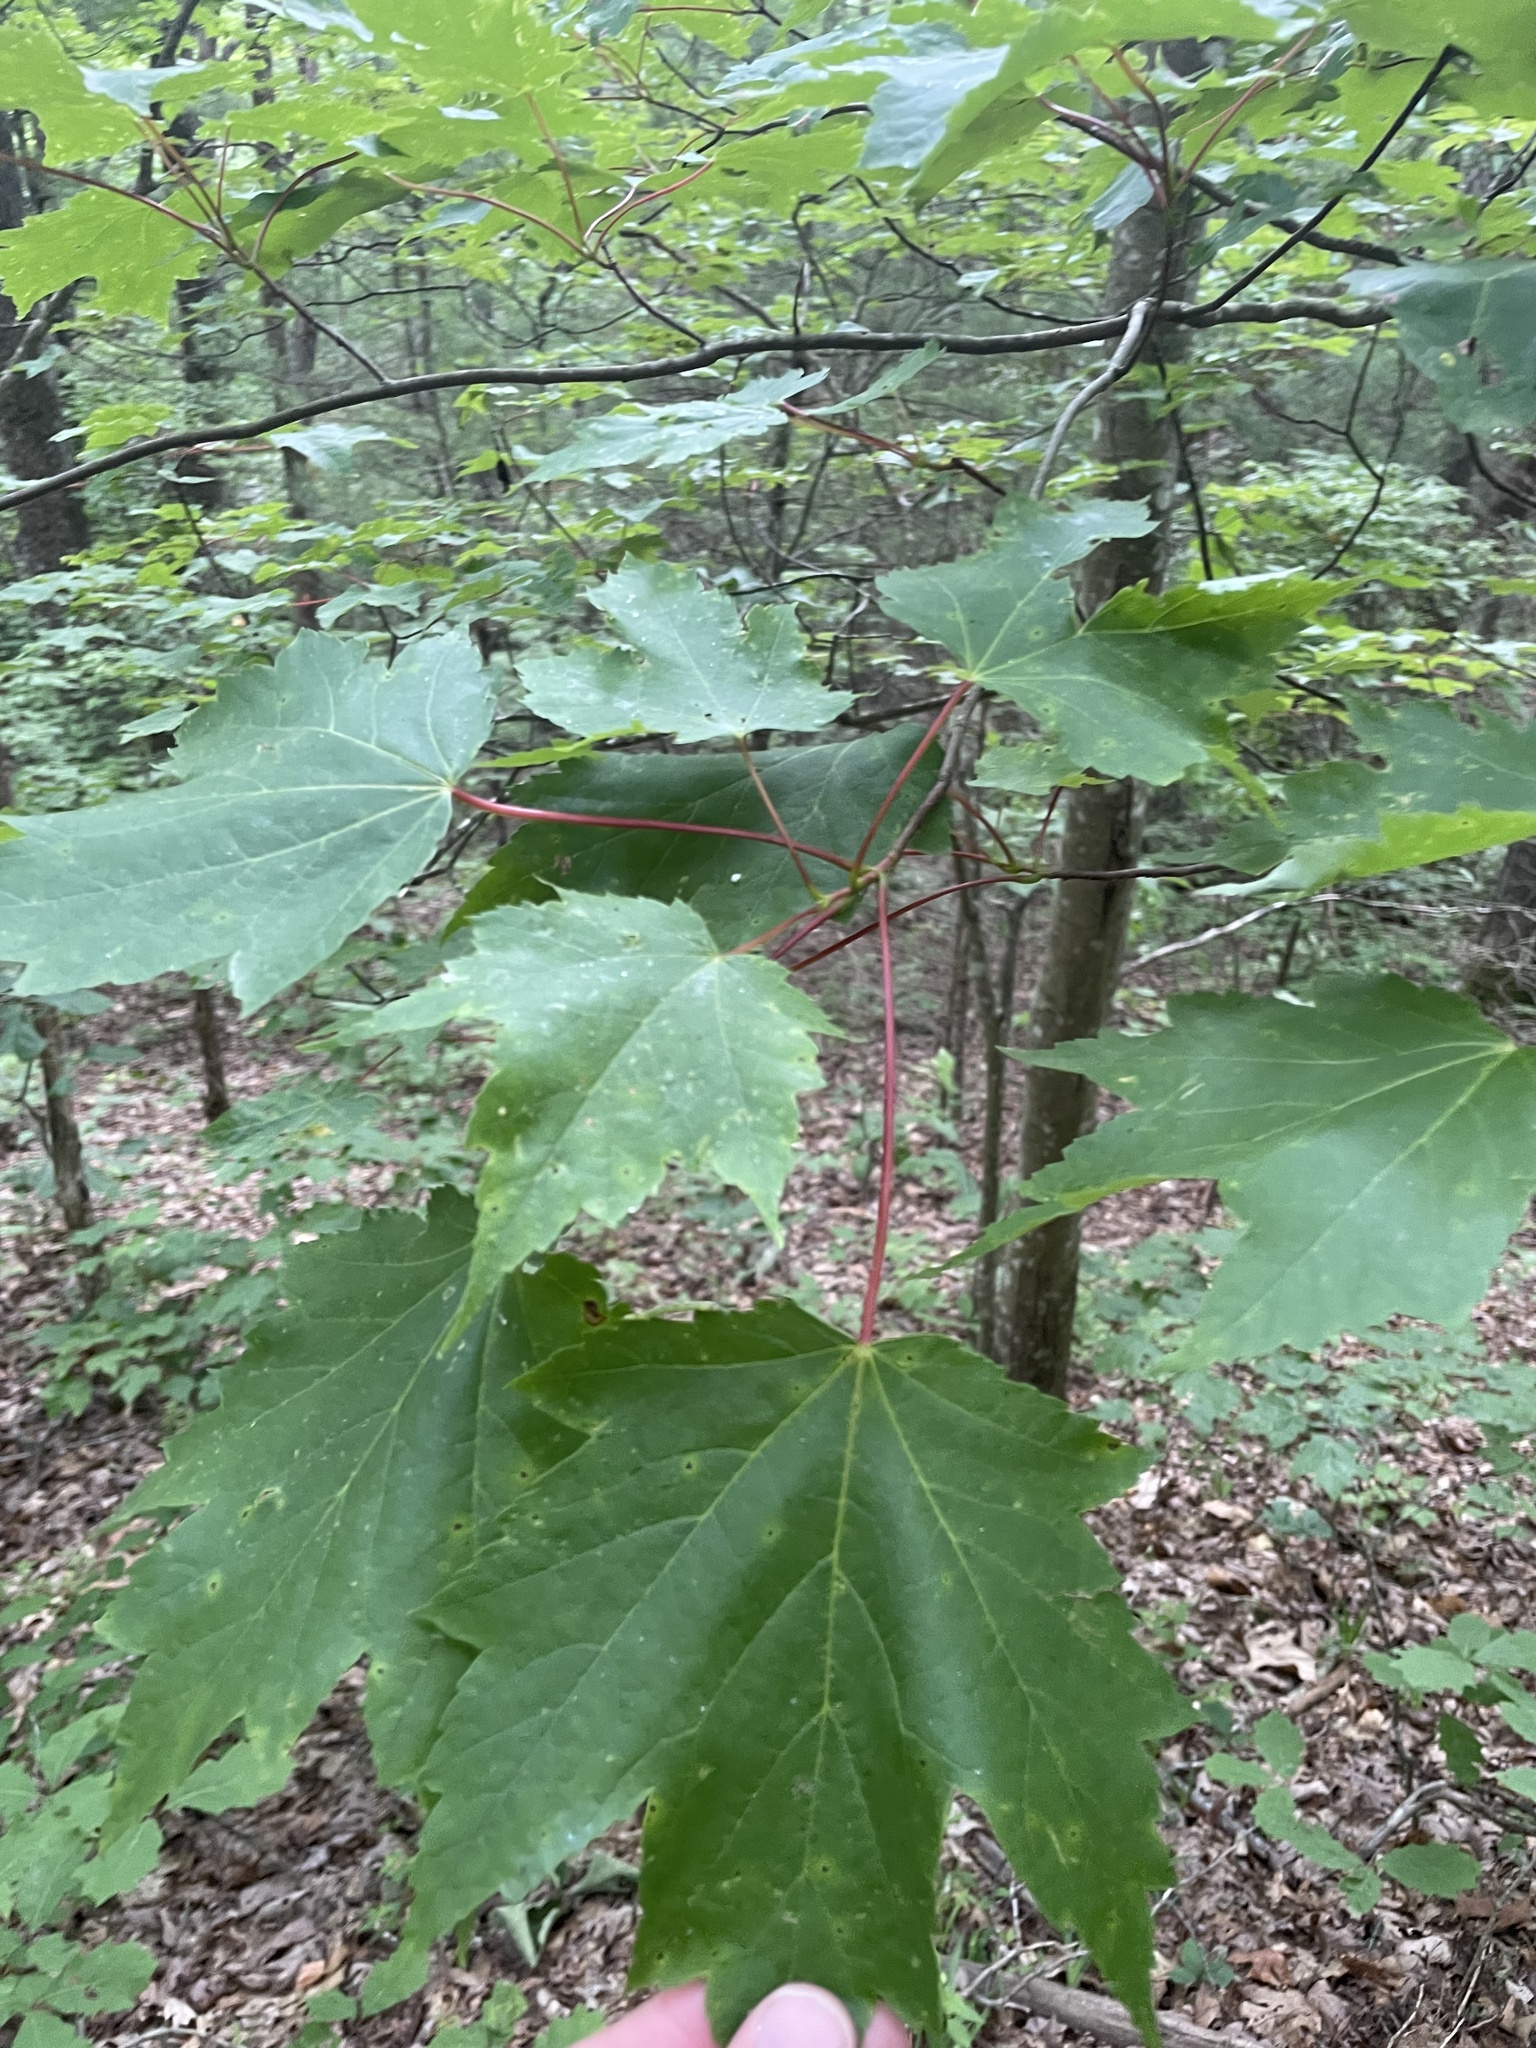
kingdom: Plantae
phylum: Tracheophyta
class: Magnoliopsida
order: Sapindales
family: Sapindaceae
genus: Acer
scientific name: Acer rubrum
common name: Red maple
